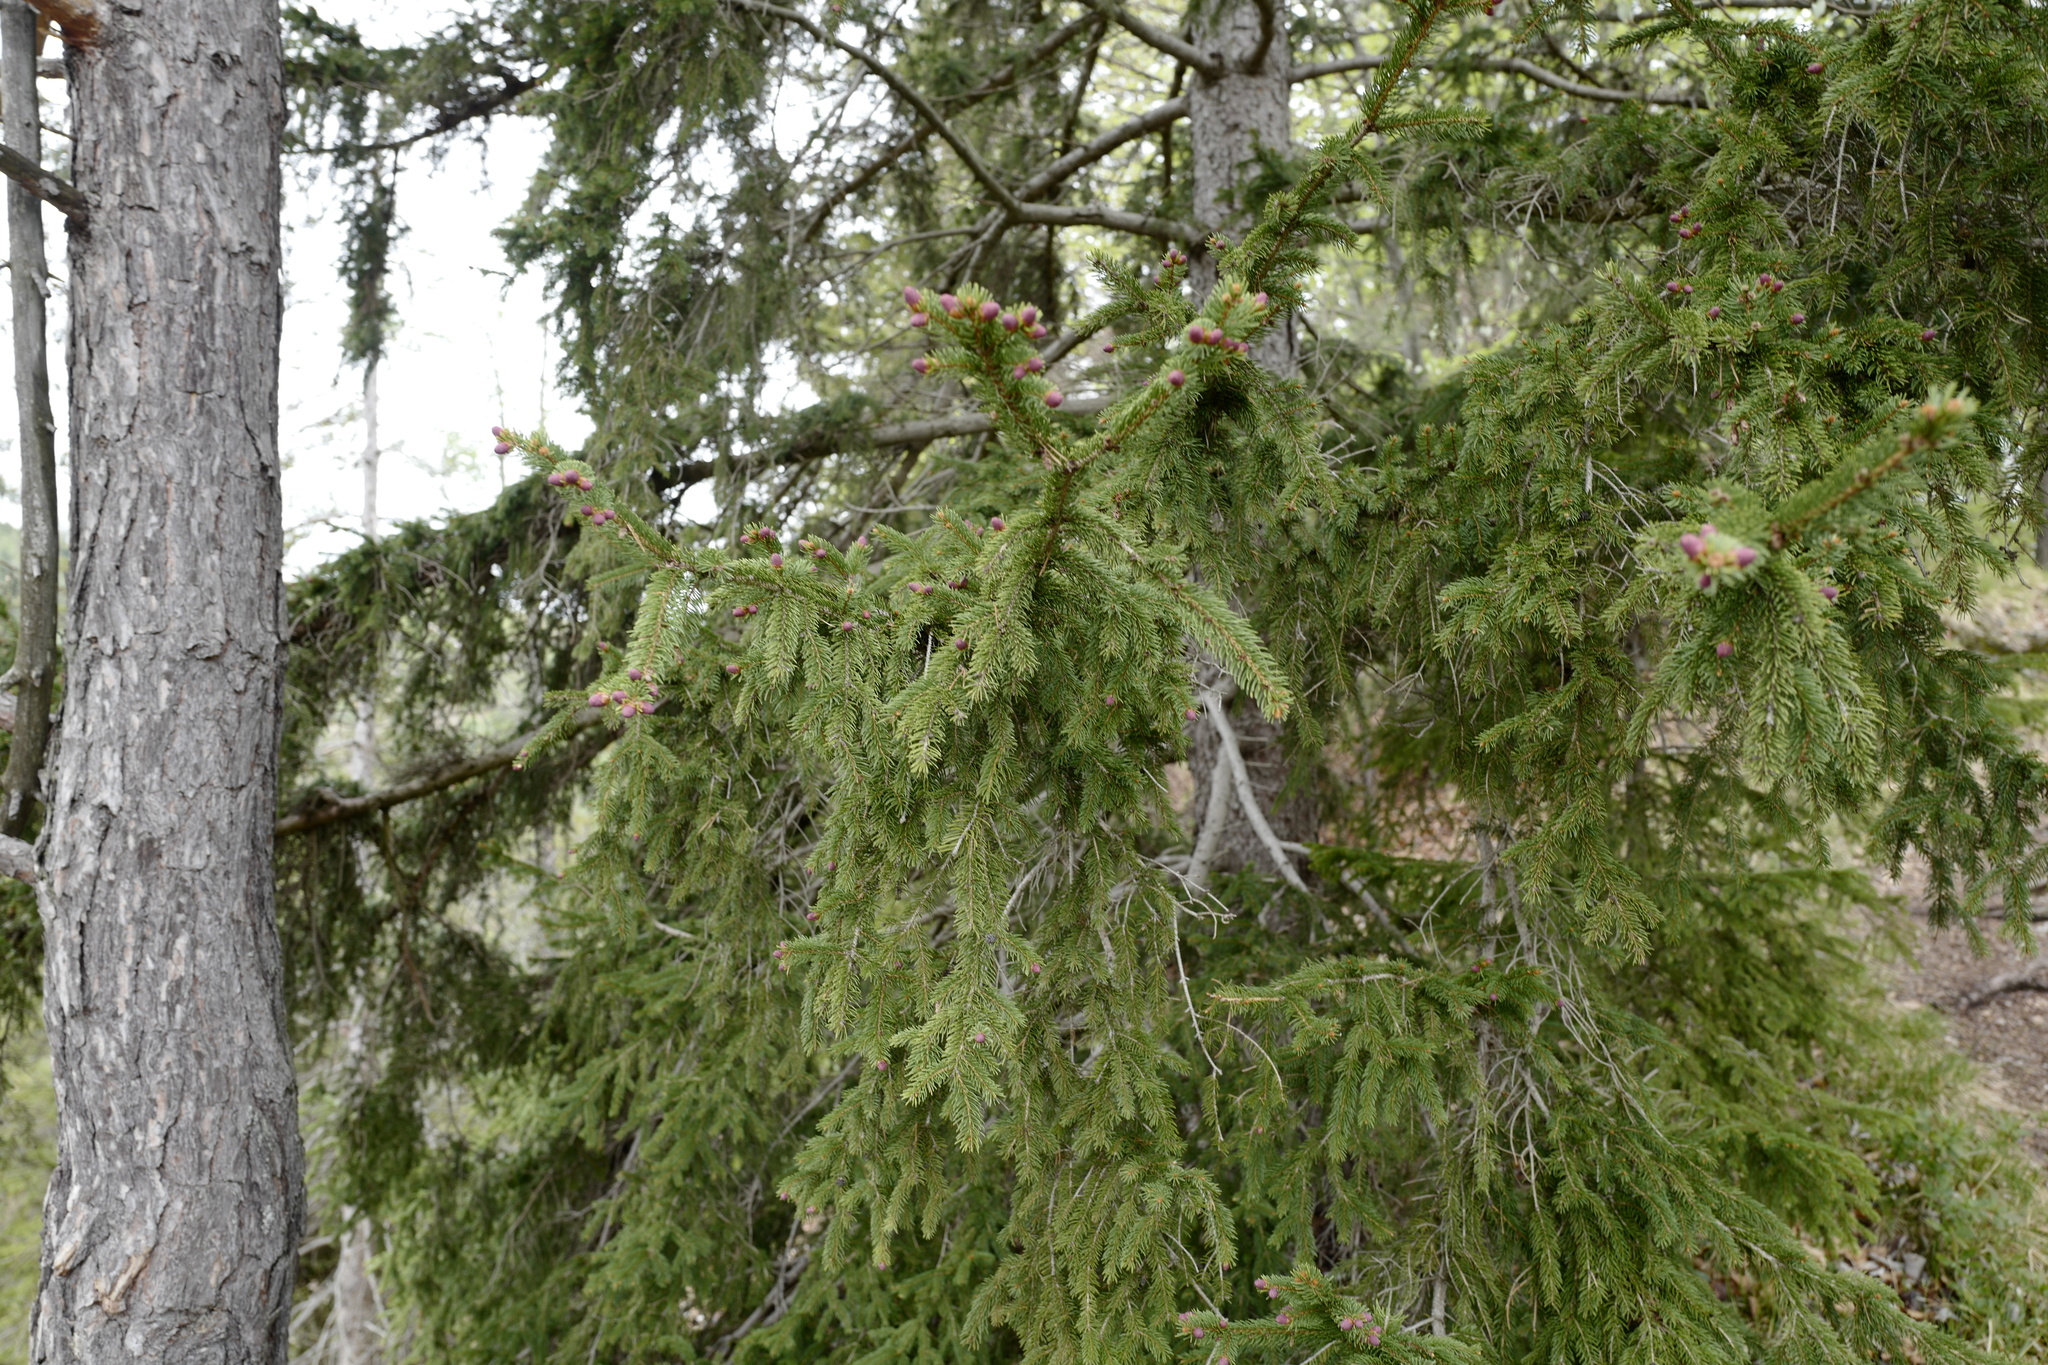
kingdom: Plantae
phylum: Tracheophyta
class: Pinopsida
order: Pinales
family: Pinaceae
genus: Picea
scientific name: Picea abies
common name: Norway spruce
